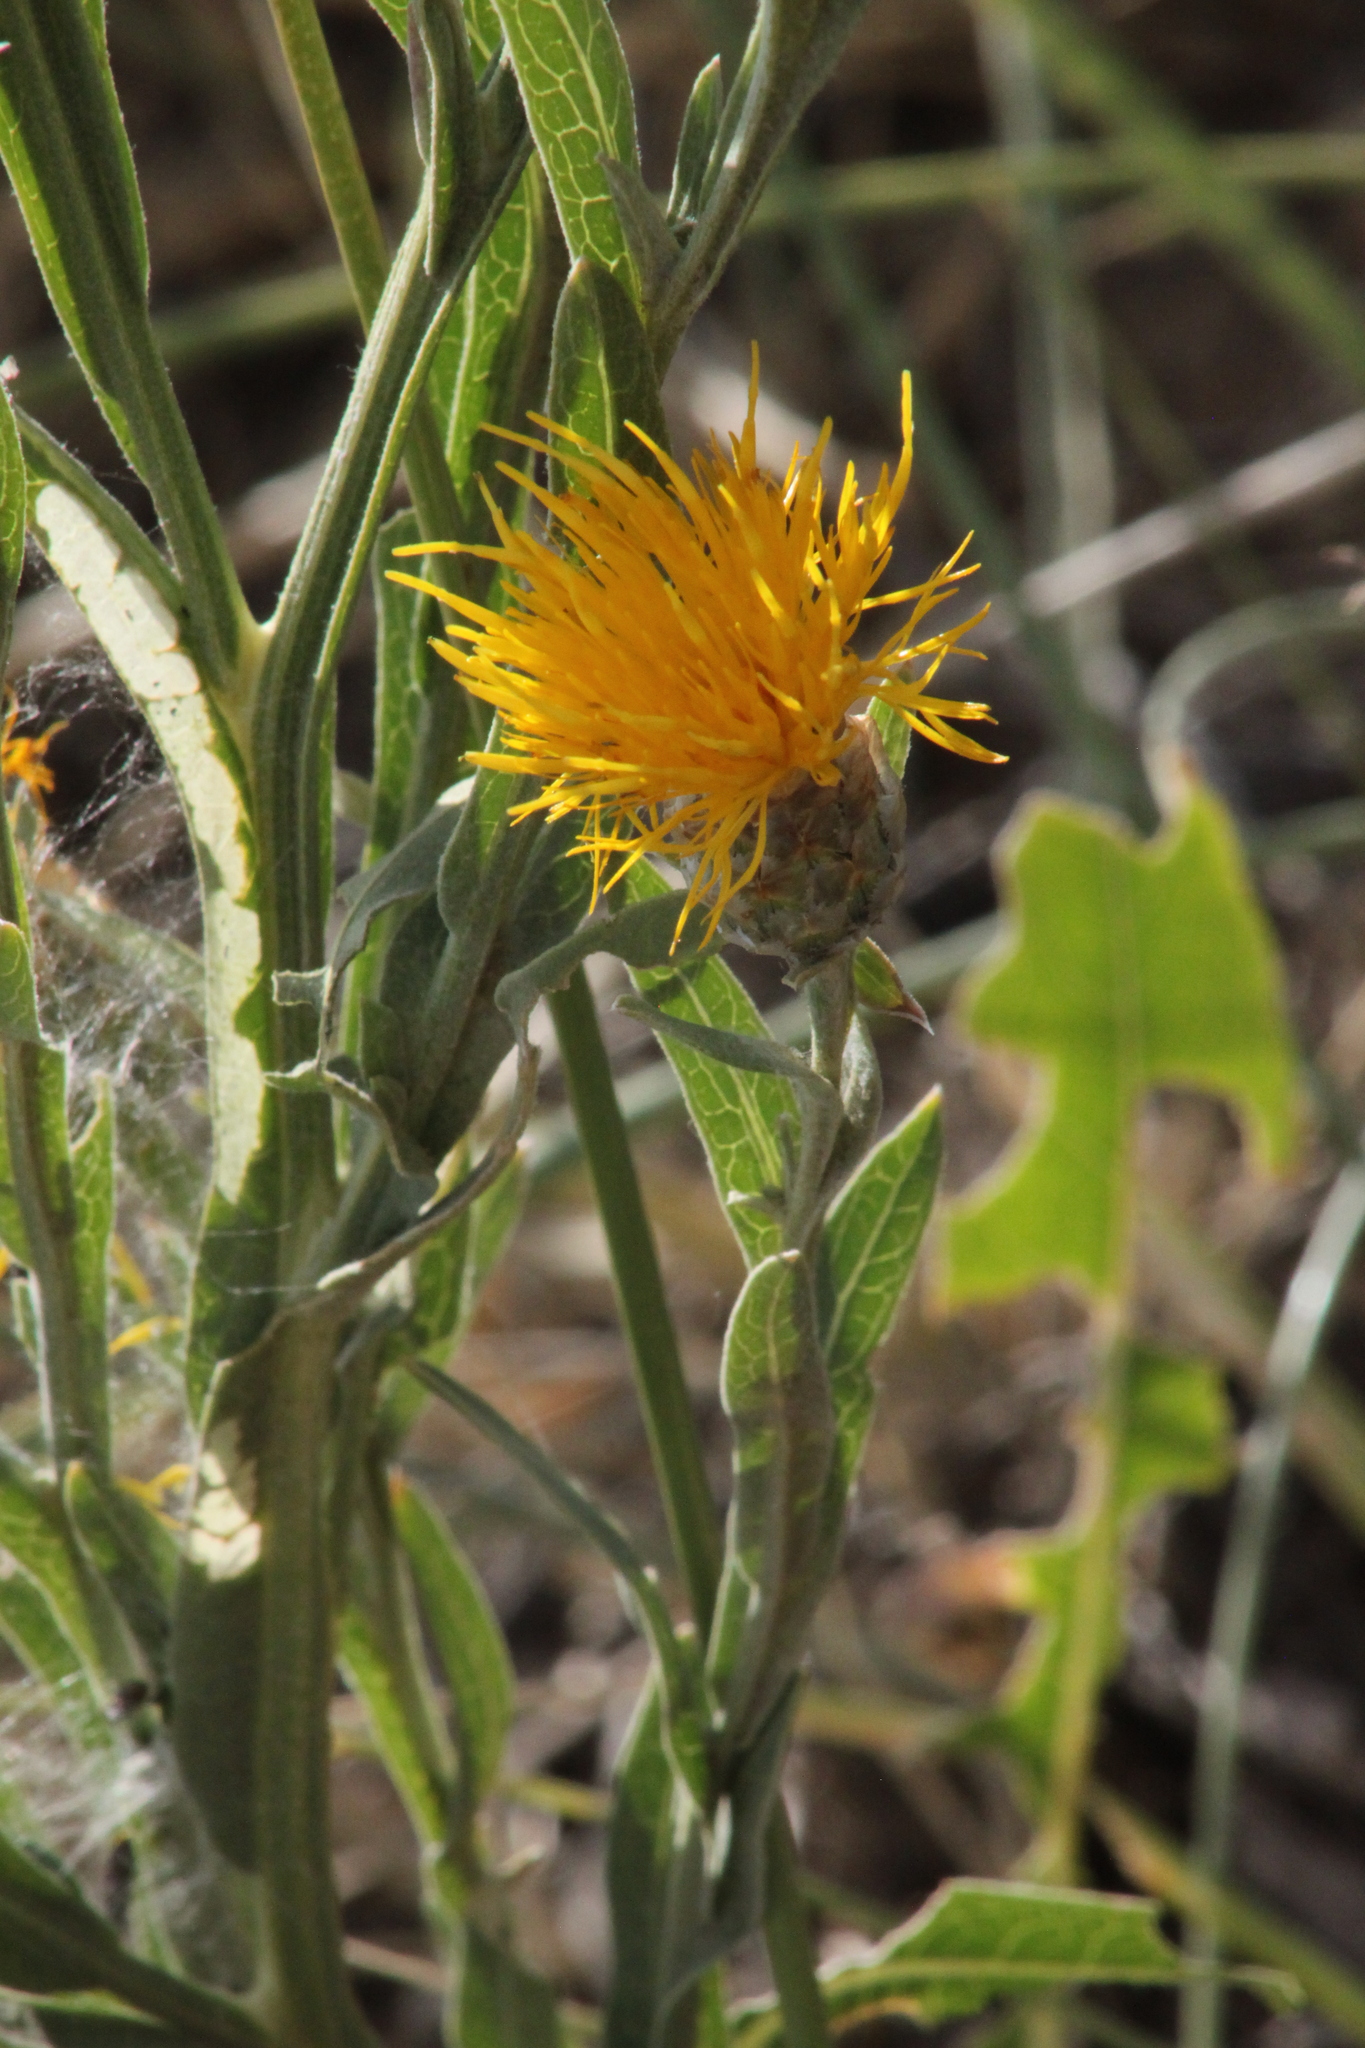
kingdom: Plantae
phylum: Tracheophyta
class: Magnoliopsida
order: Asterales
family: Asteraceae
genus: Centaurea
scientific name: Centaurea glastifolia
